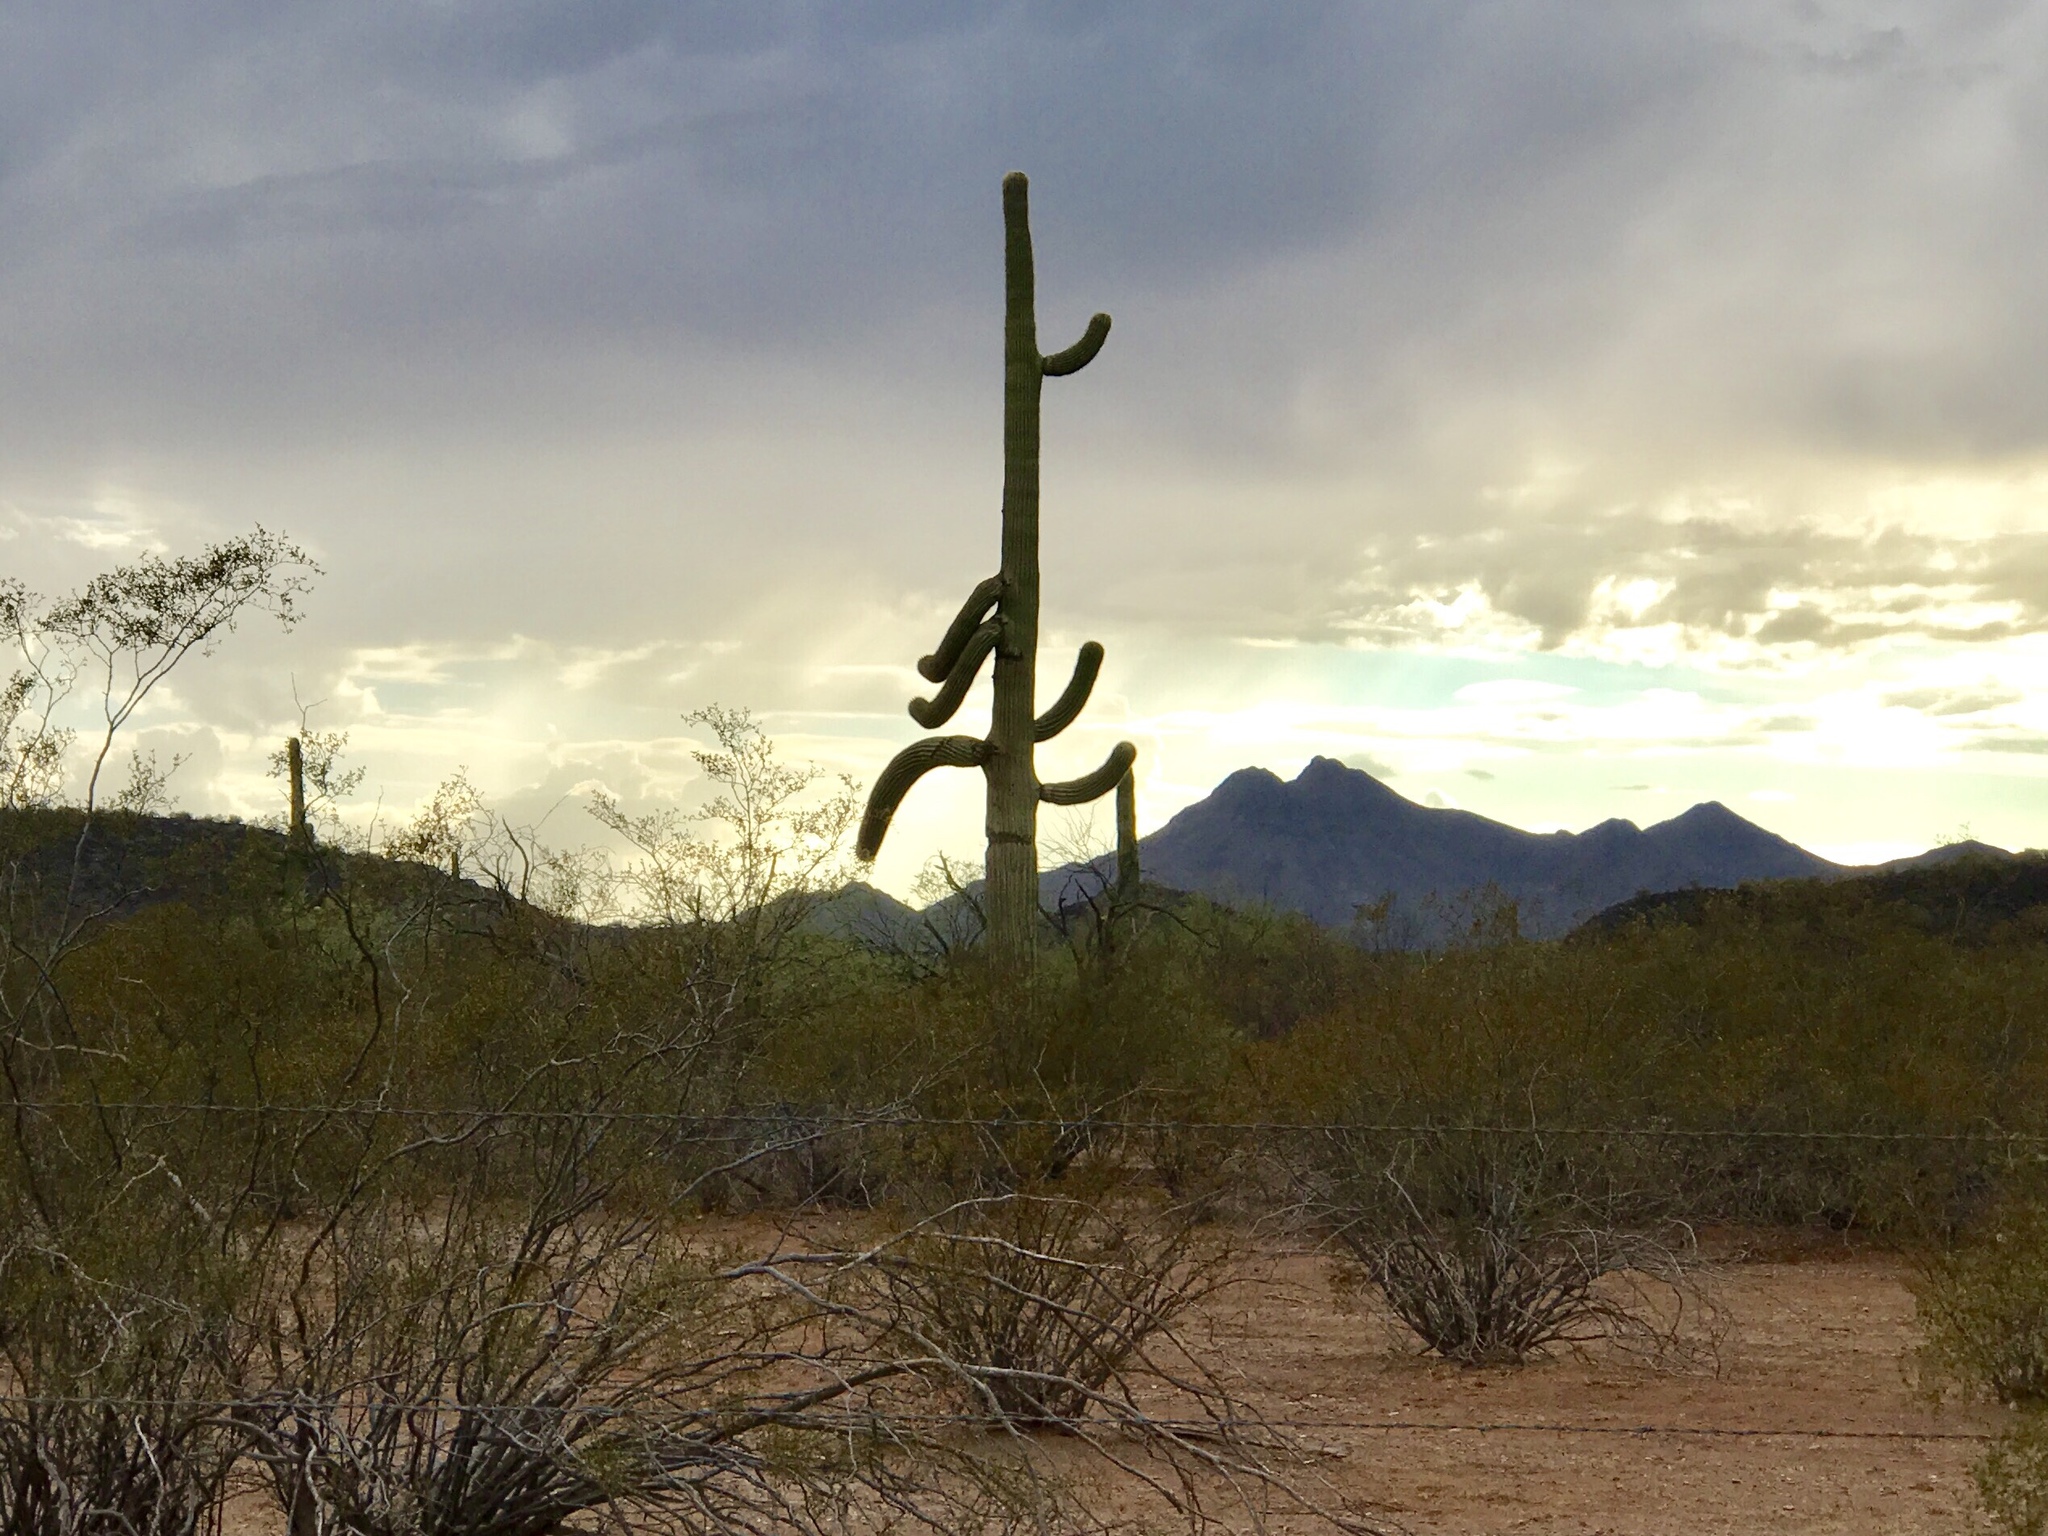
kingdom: Plantae
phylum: Tracheophyta
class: Magnoliopsida
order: Caryophyllales
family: Cactaceae
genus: Carnegiea
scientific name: Carnegiea gigantea
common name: Saguaro
